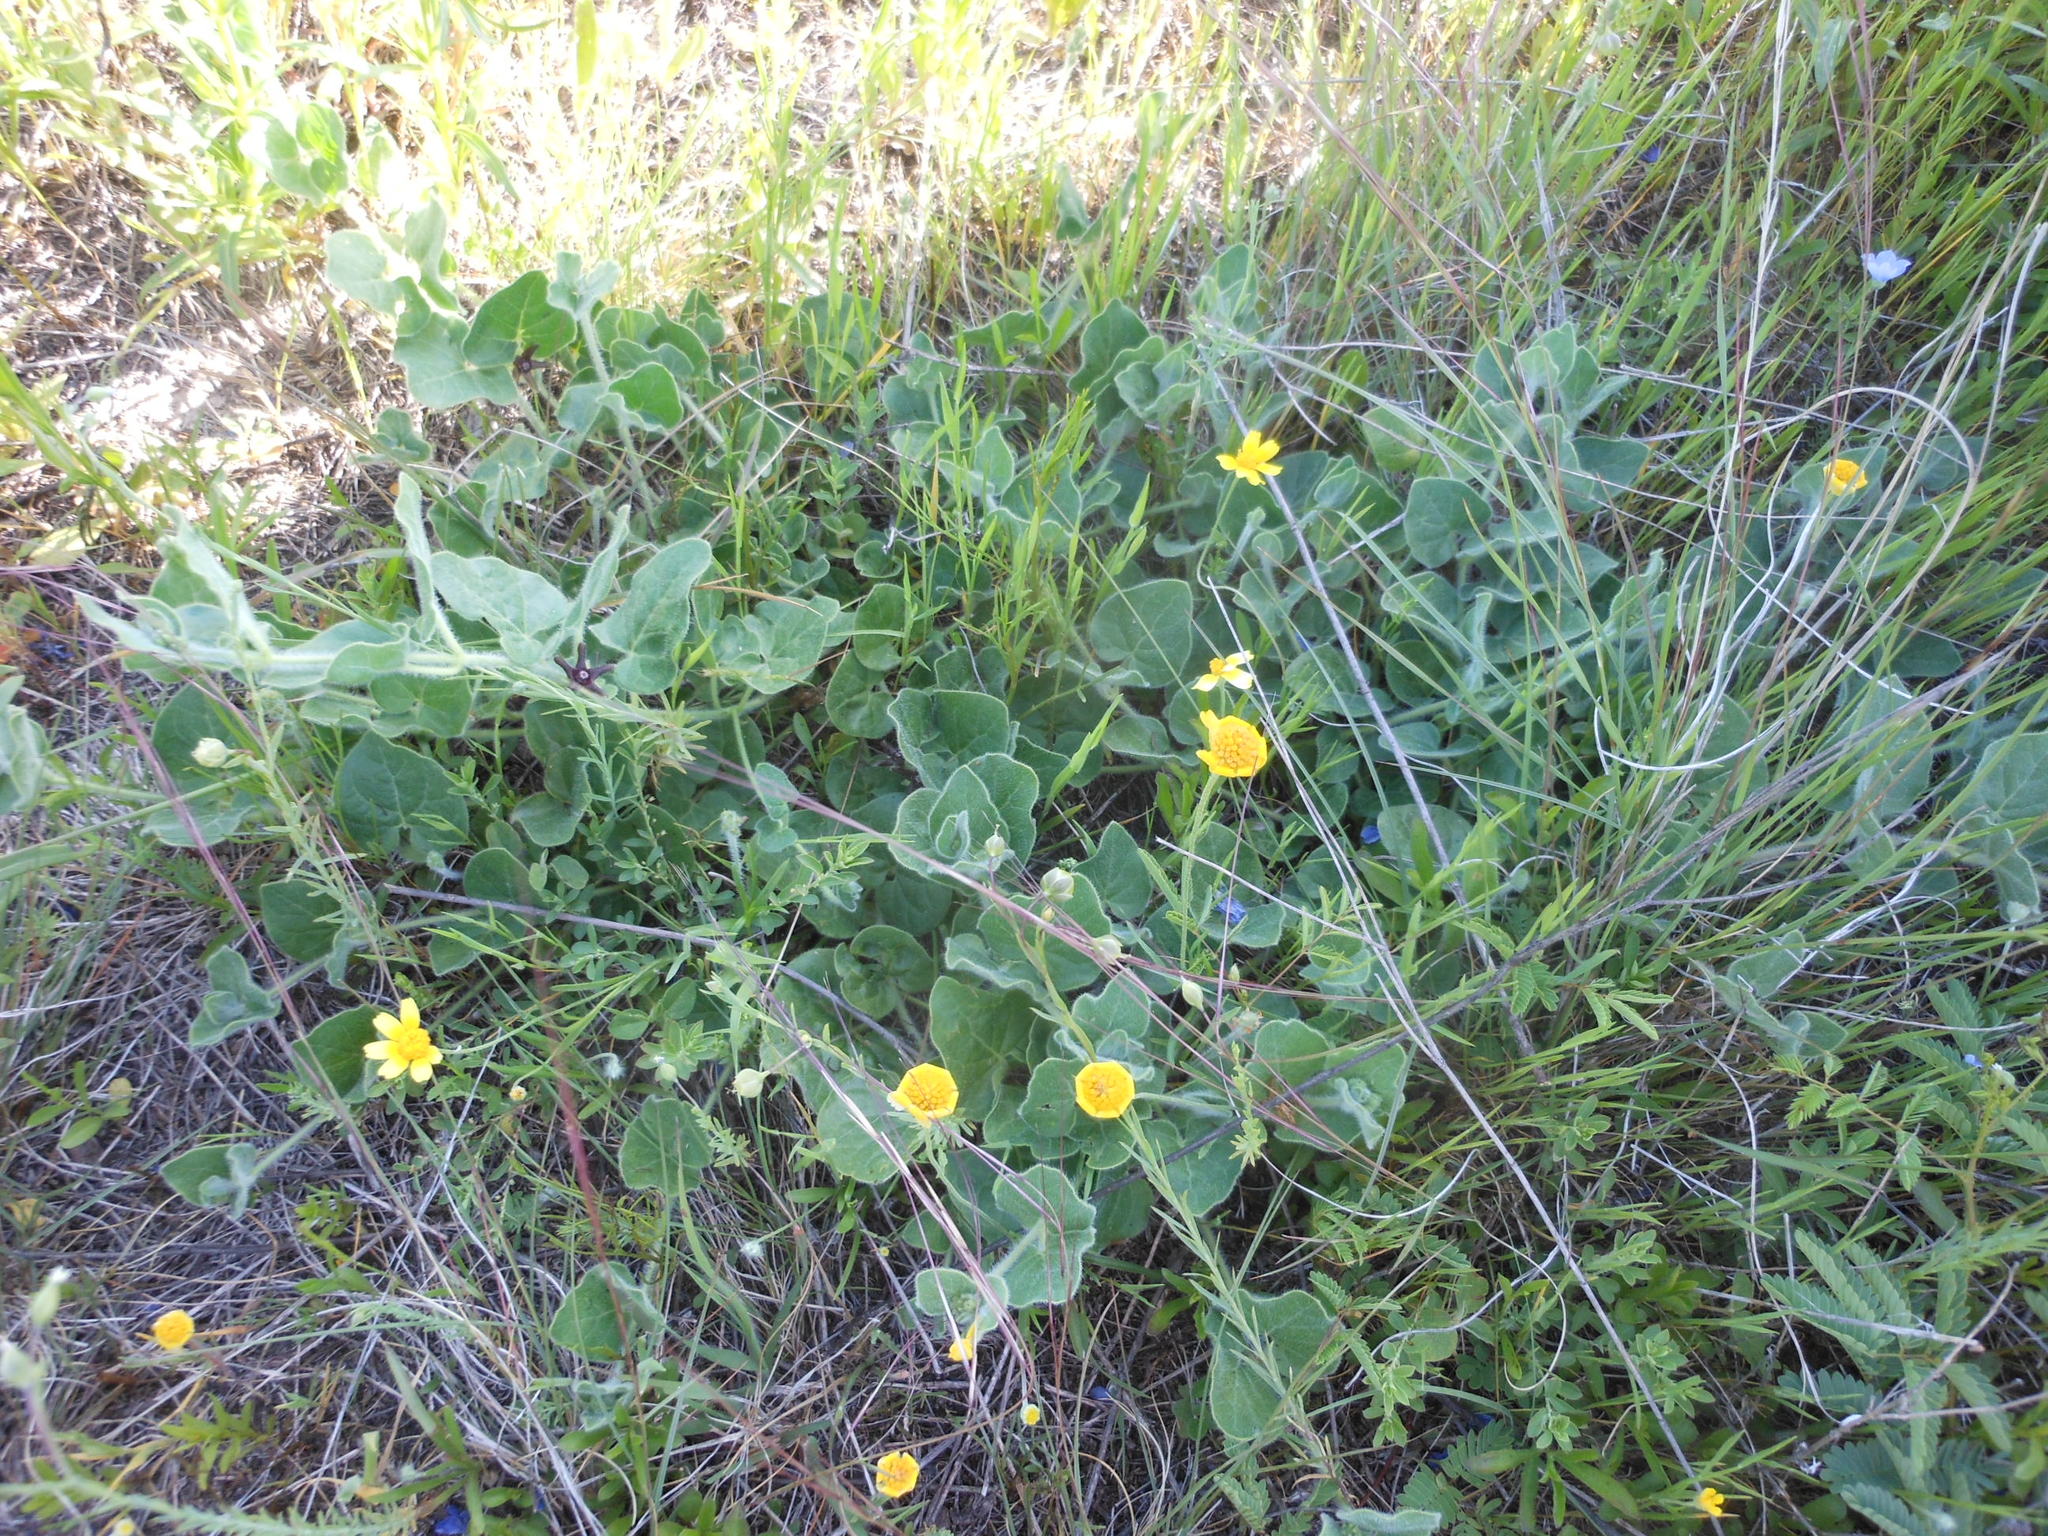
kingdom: Plantae
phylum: Tracheophyta
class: Magnoliopsida
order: Gentianales
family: Apocynaceae
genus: Chthamalia
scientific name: Chthamalia biflora
